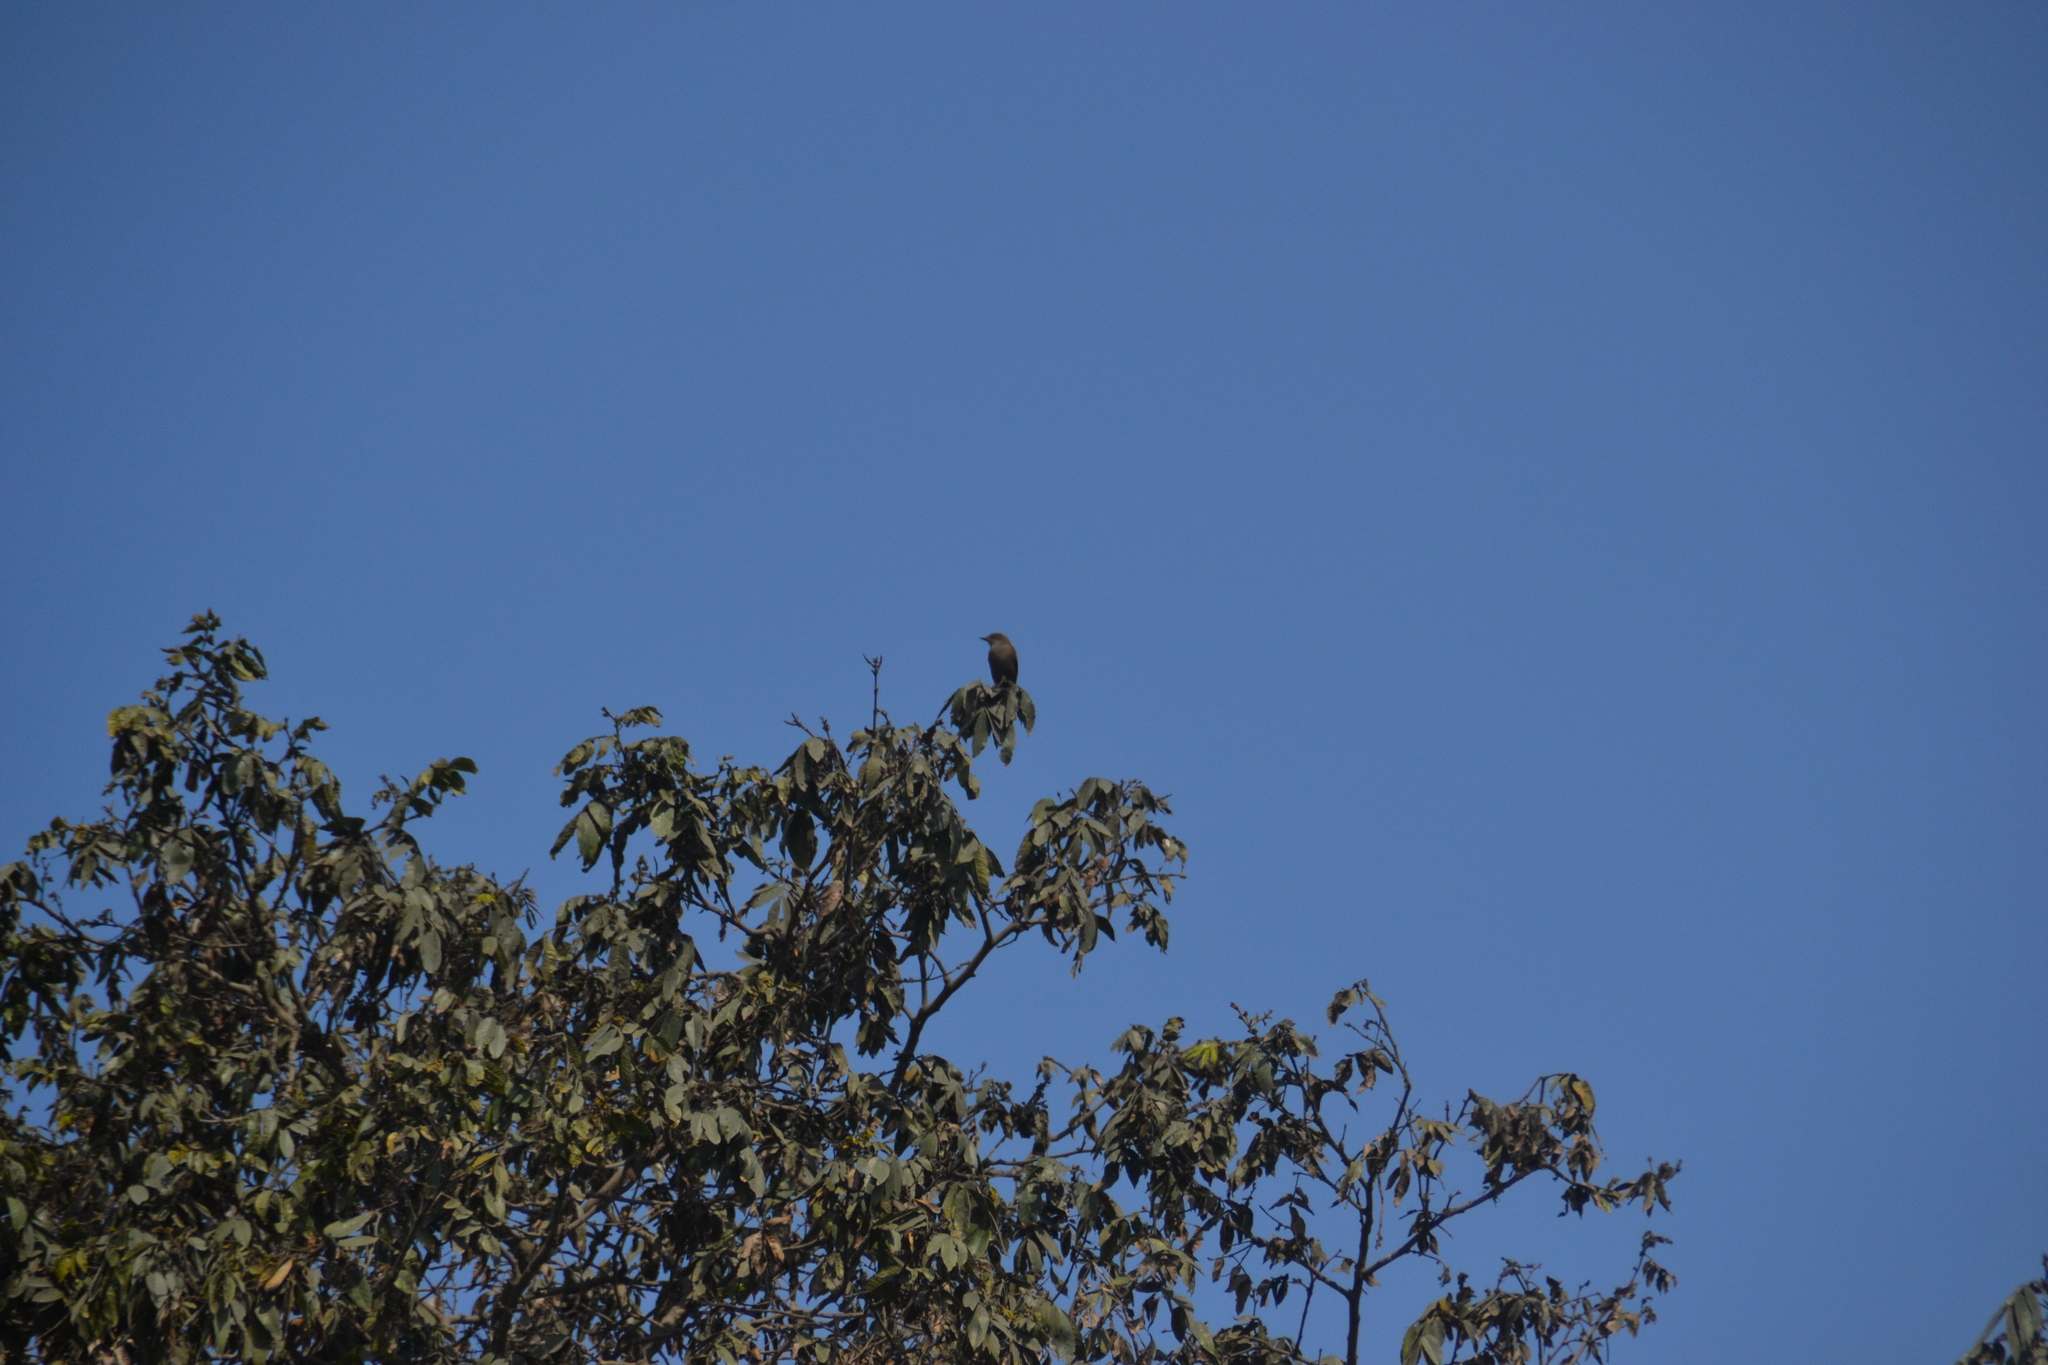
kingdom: Animalia
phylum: Chordata
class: Aves
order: Passeriformes
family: Tyrannidae
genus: Pyrocephalus
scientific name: Pyrocephalus rubinus
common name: Vermilion flycatcher
